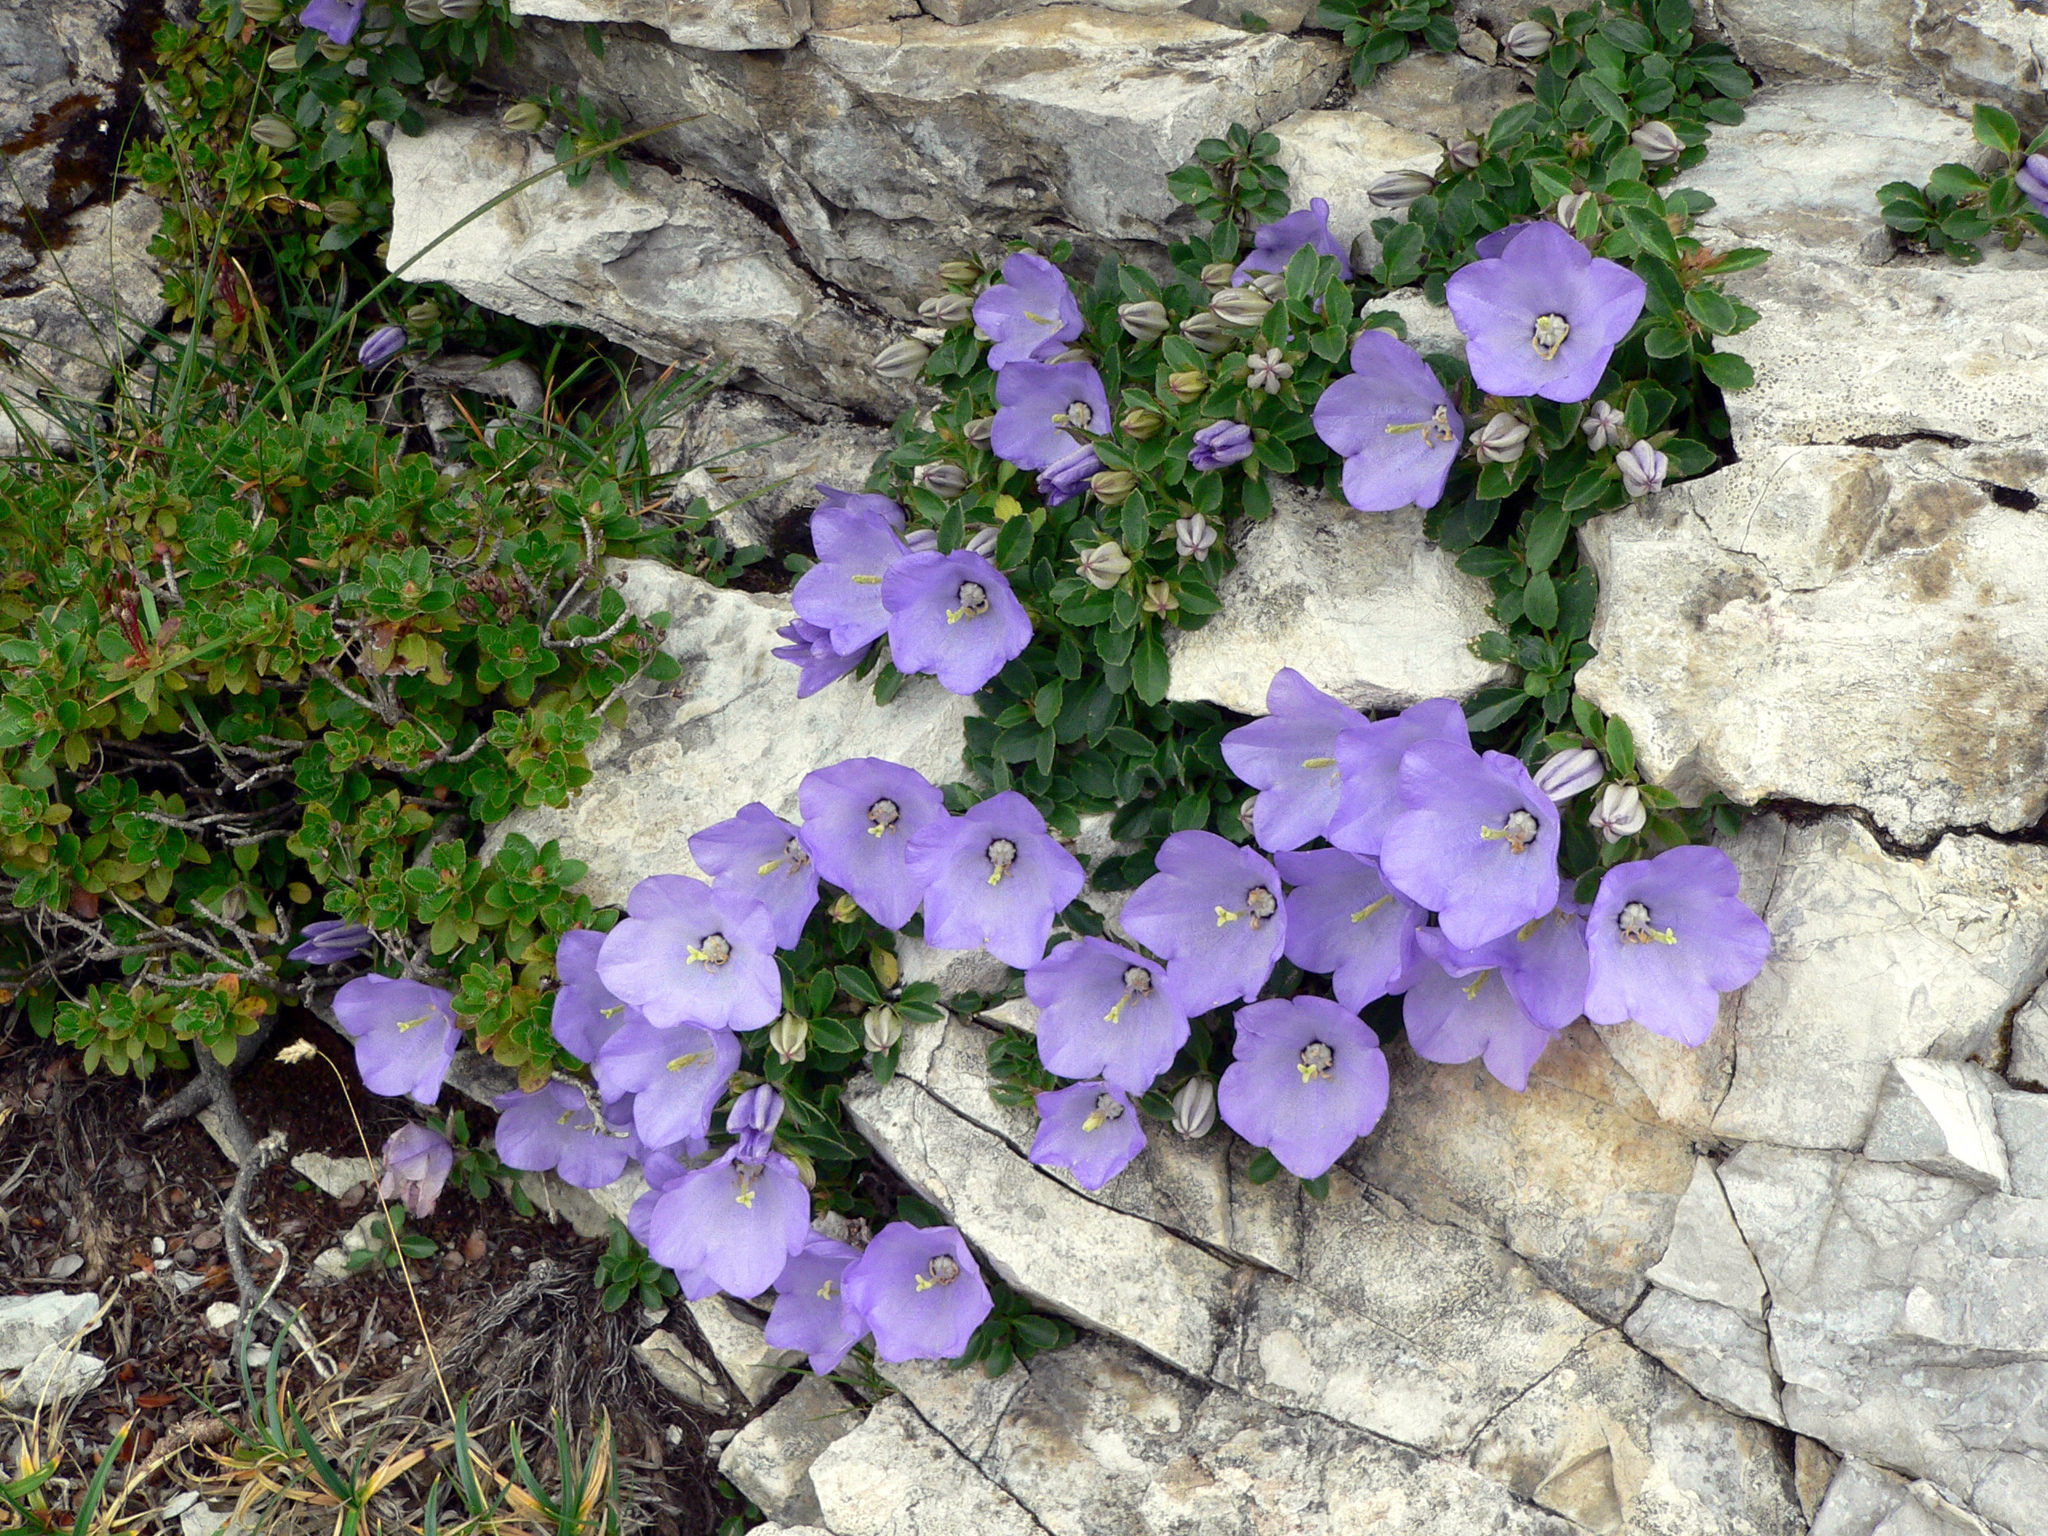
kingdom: Plantae
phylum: Tracheophyta
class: Magnoliopsida
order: Asterales
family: Campanulaceae
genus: Campanula
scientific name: Campanula raineri
